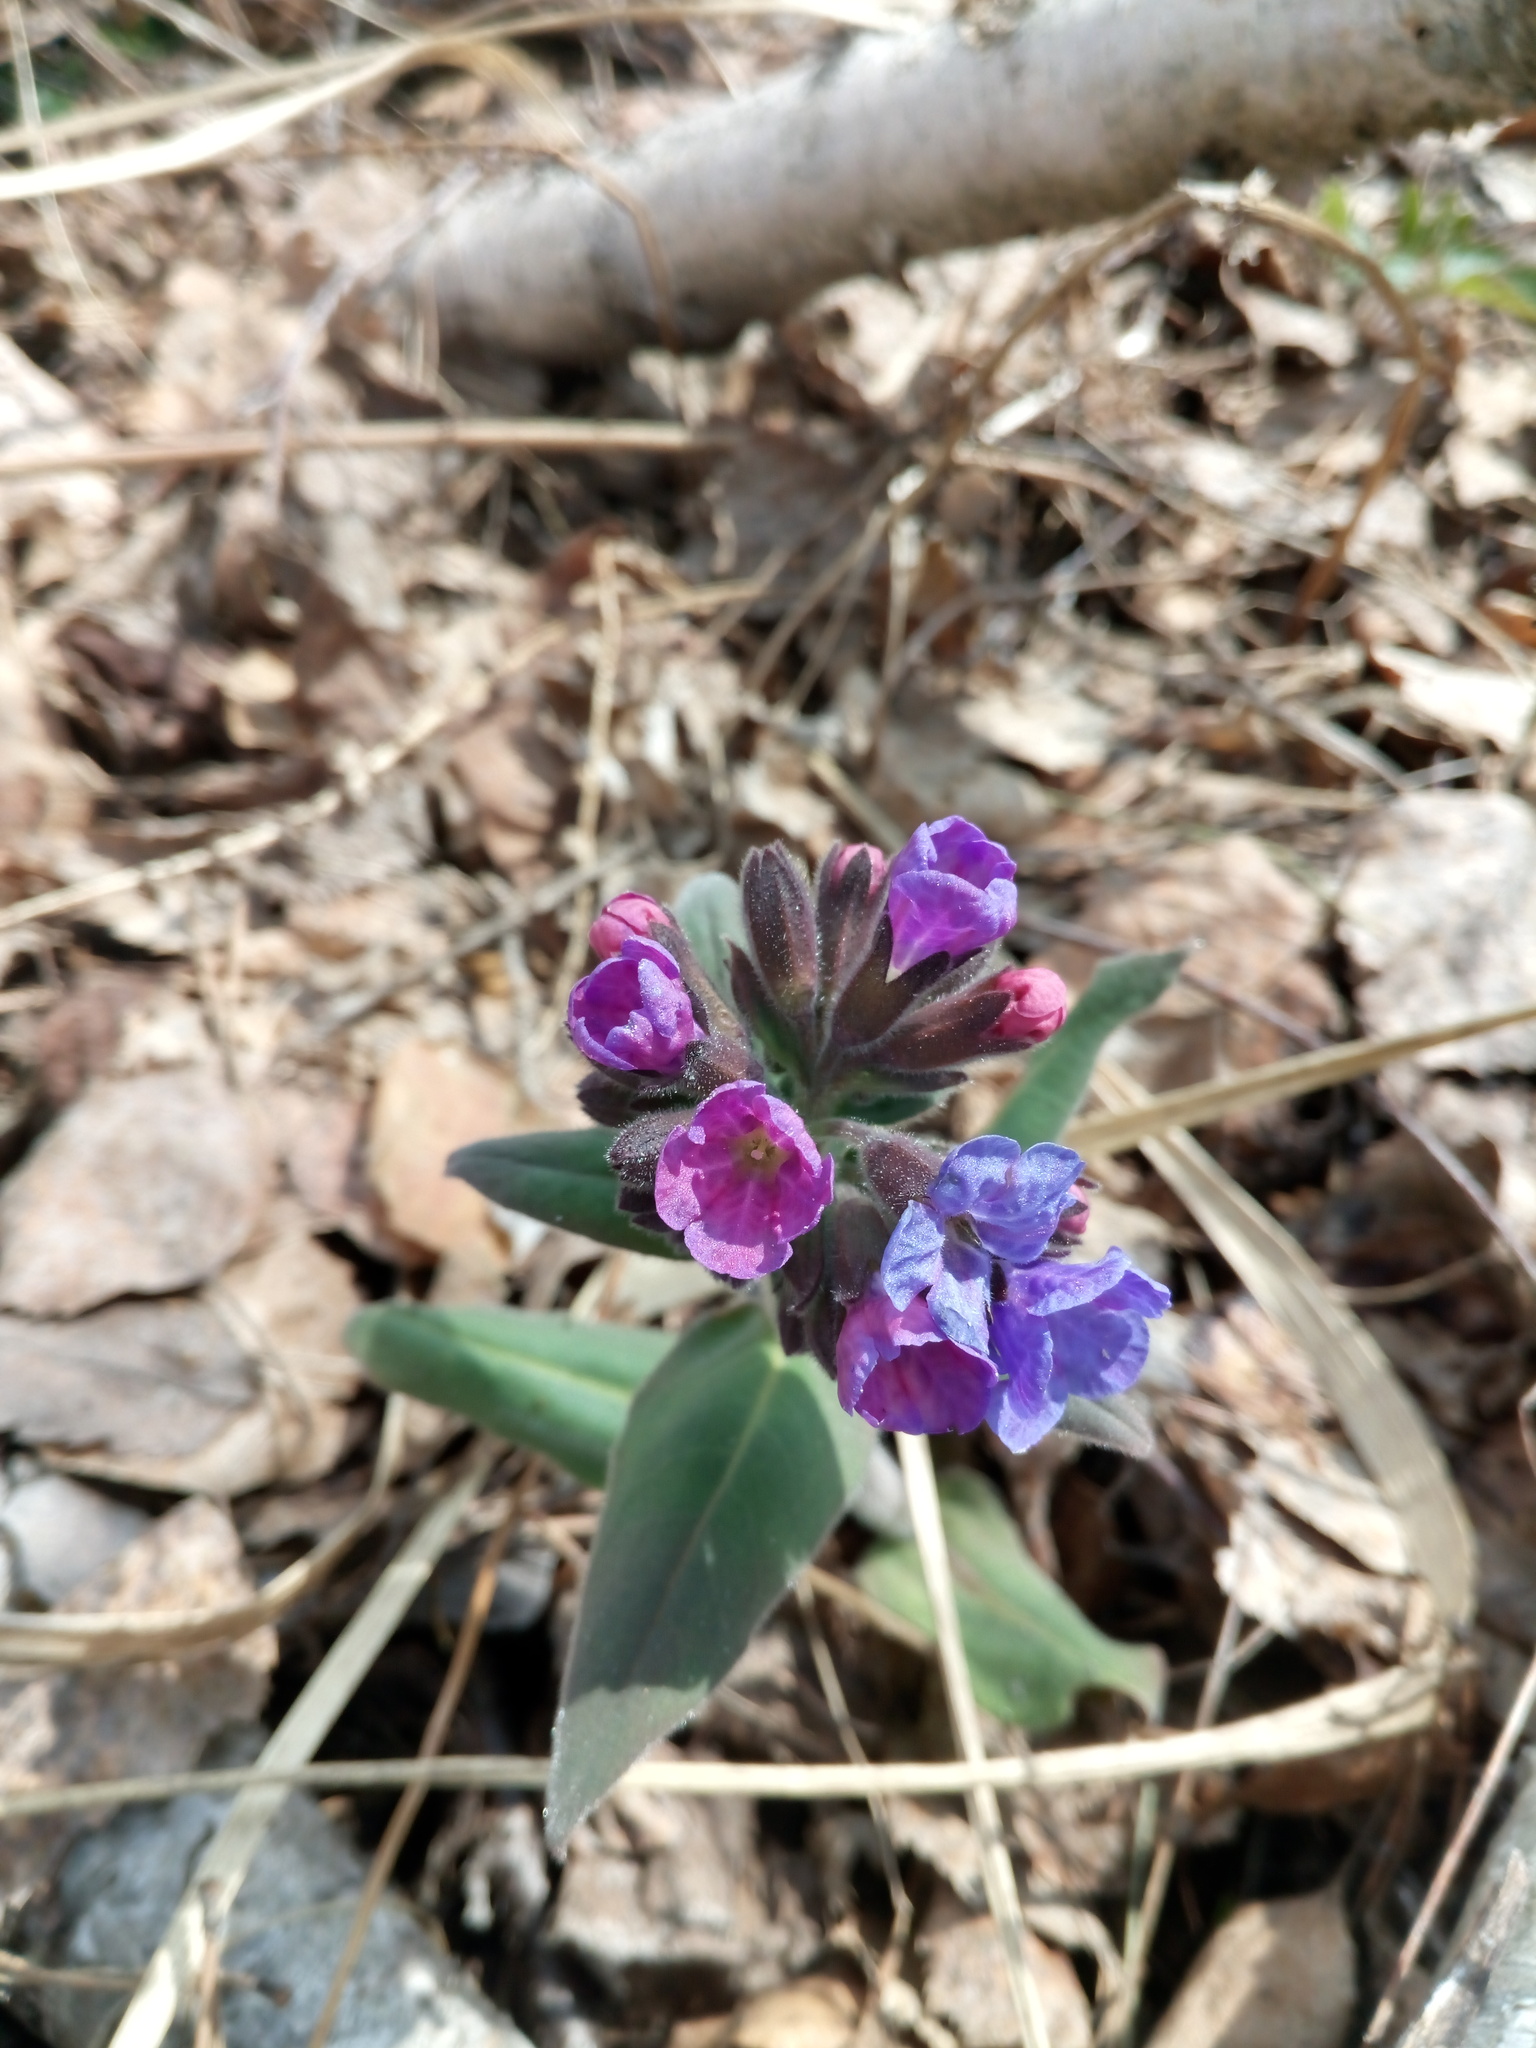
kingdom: Plantae
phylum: Tracheophyta
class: Magnoliopsida
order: Boraginales
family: Boraginaceae
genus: Pulmonaria
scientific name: Pulmonaria mollis
